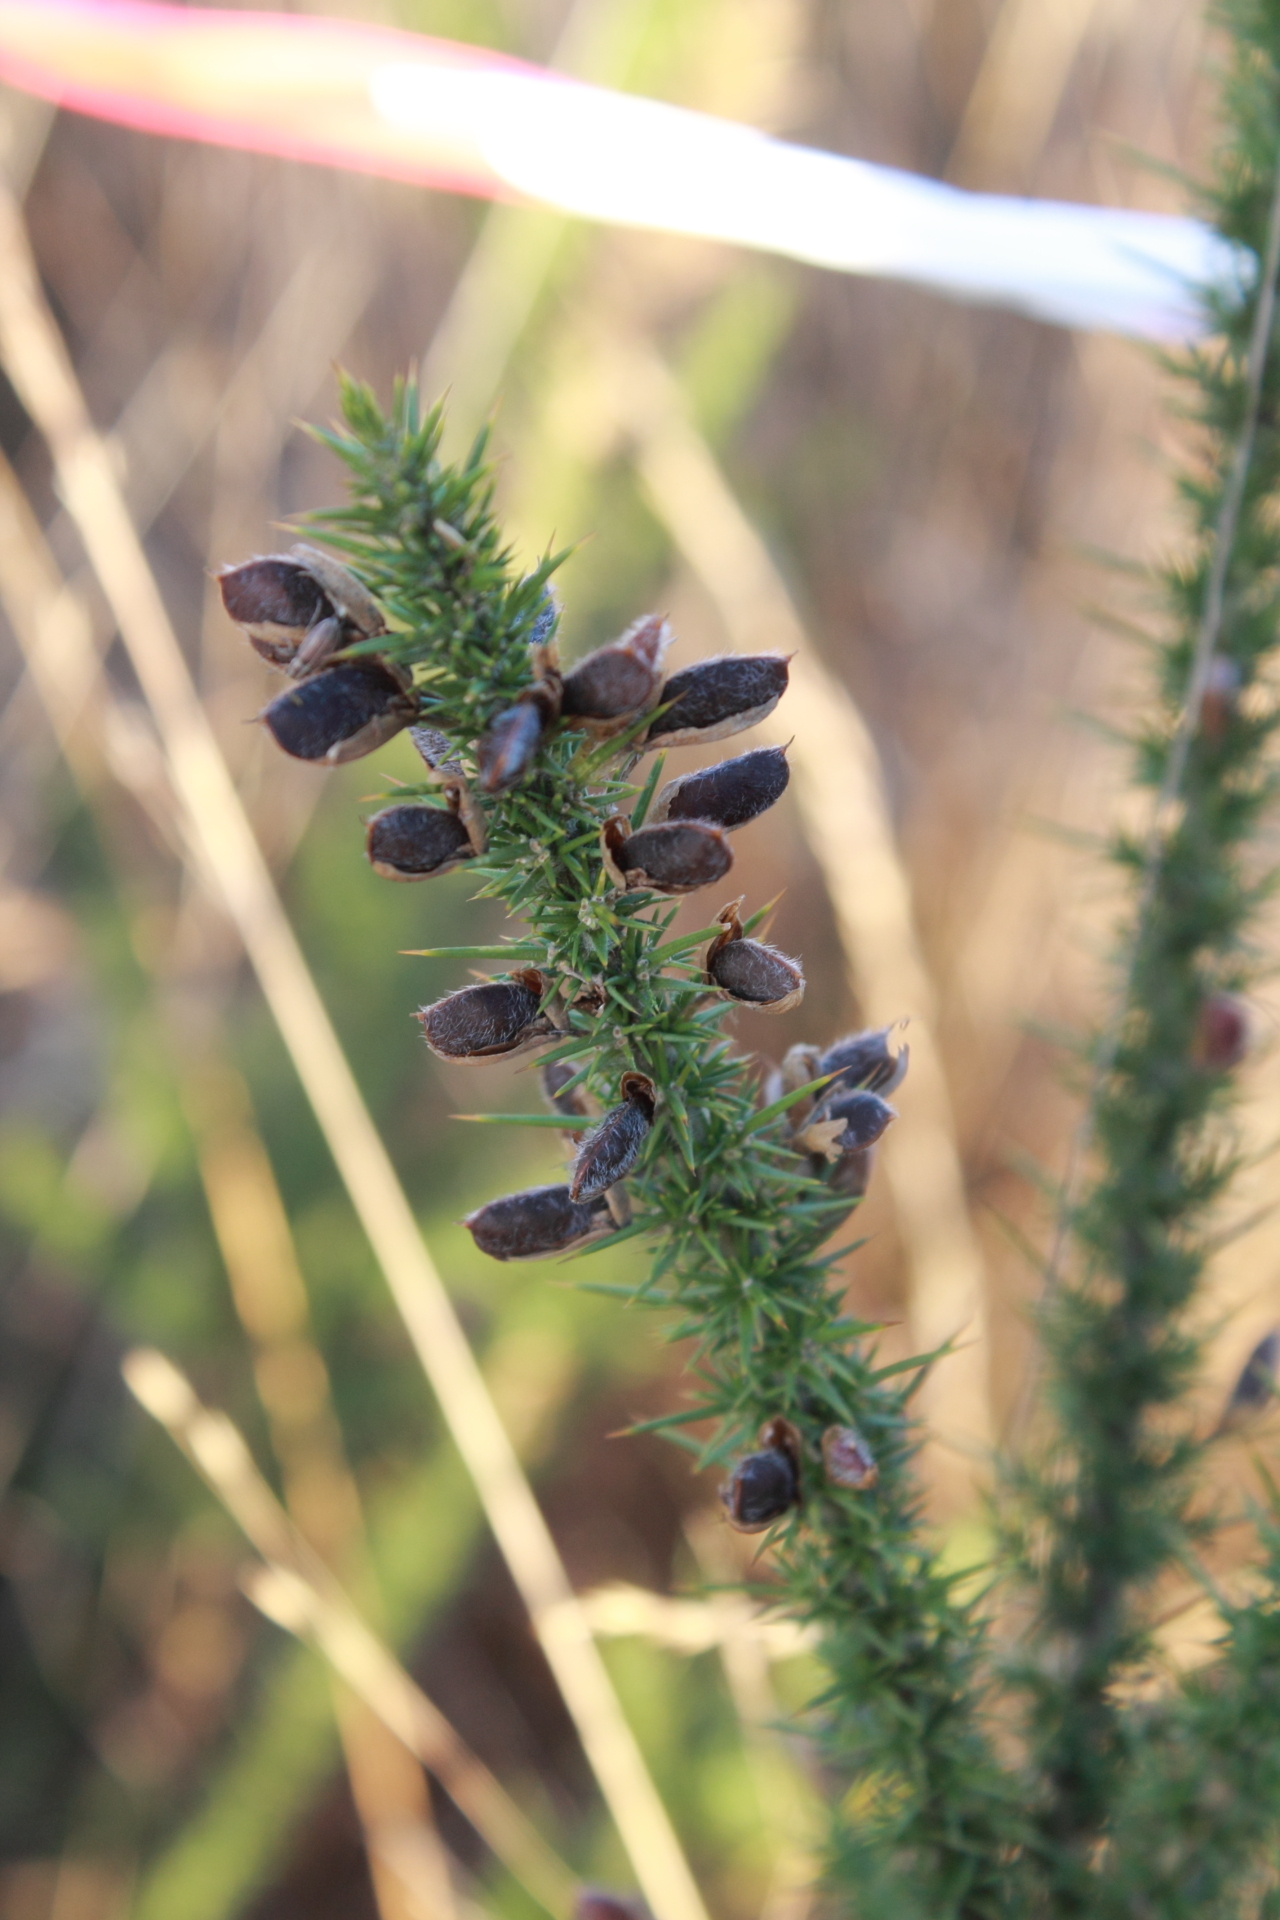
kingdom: Plantae
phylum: Tracheophyta
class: Magnoliopsida
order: Fabales
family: Fabaceae
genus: Ulex
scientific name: Ulex minor
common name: Dwarf gorse
